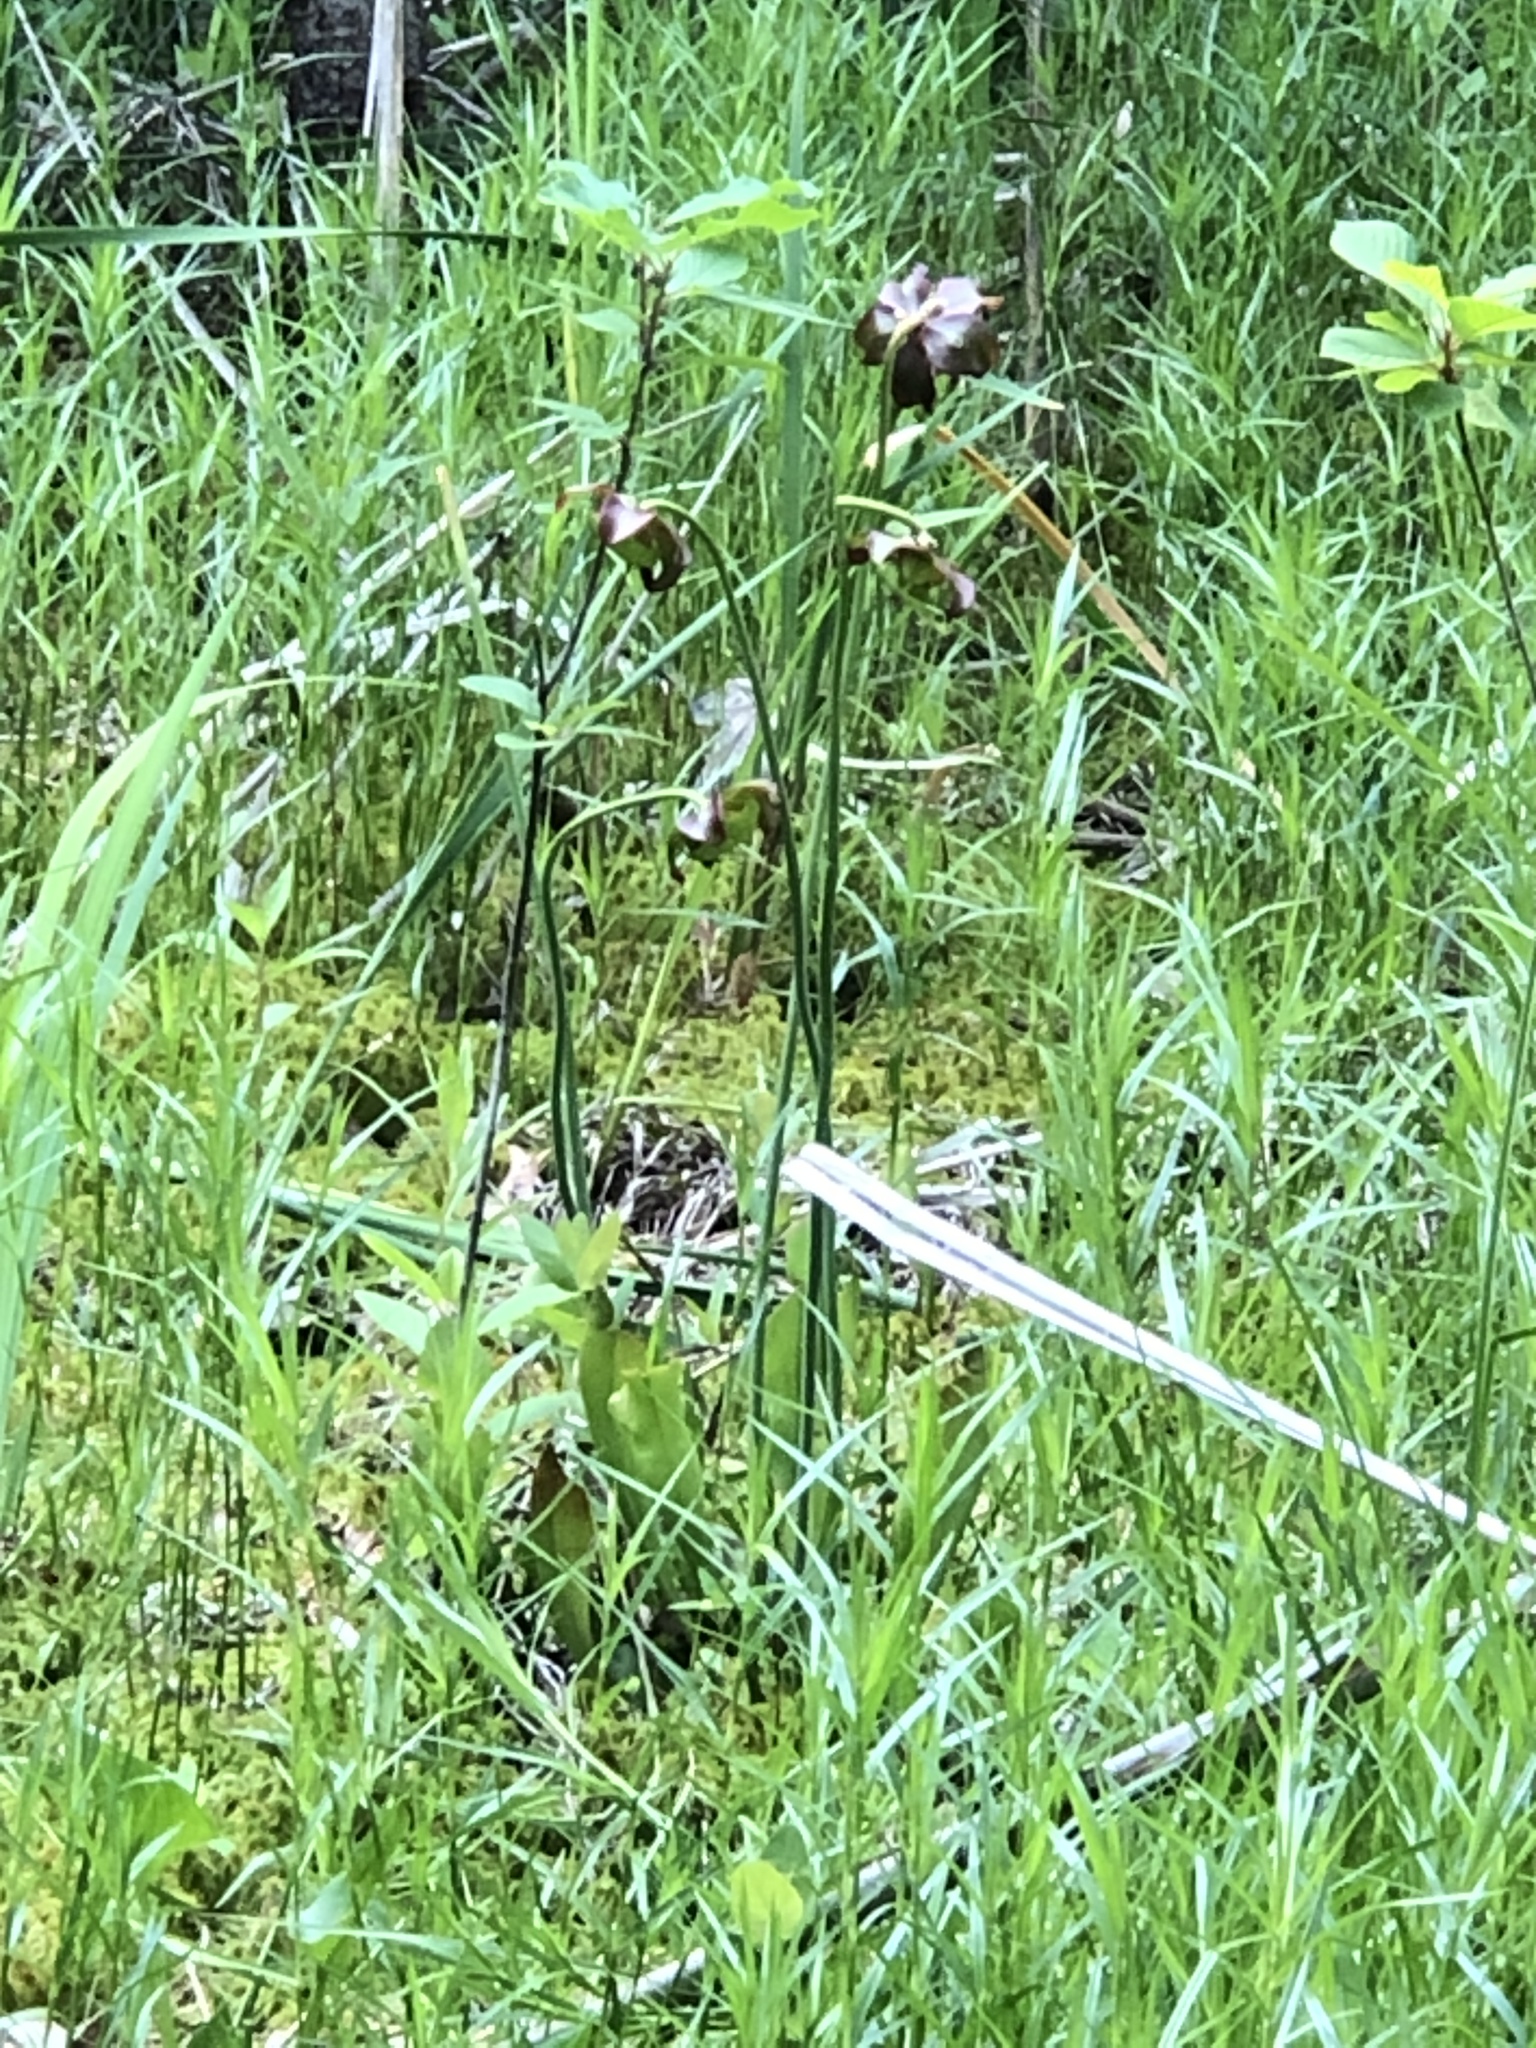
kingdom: Plantae
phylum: Tracheophyta
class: Magnoliopsida
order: Ericales
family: Sarraceniaceae
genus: Sarracenia
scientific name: Sarracenia purpurea
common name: Pitcherplant
